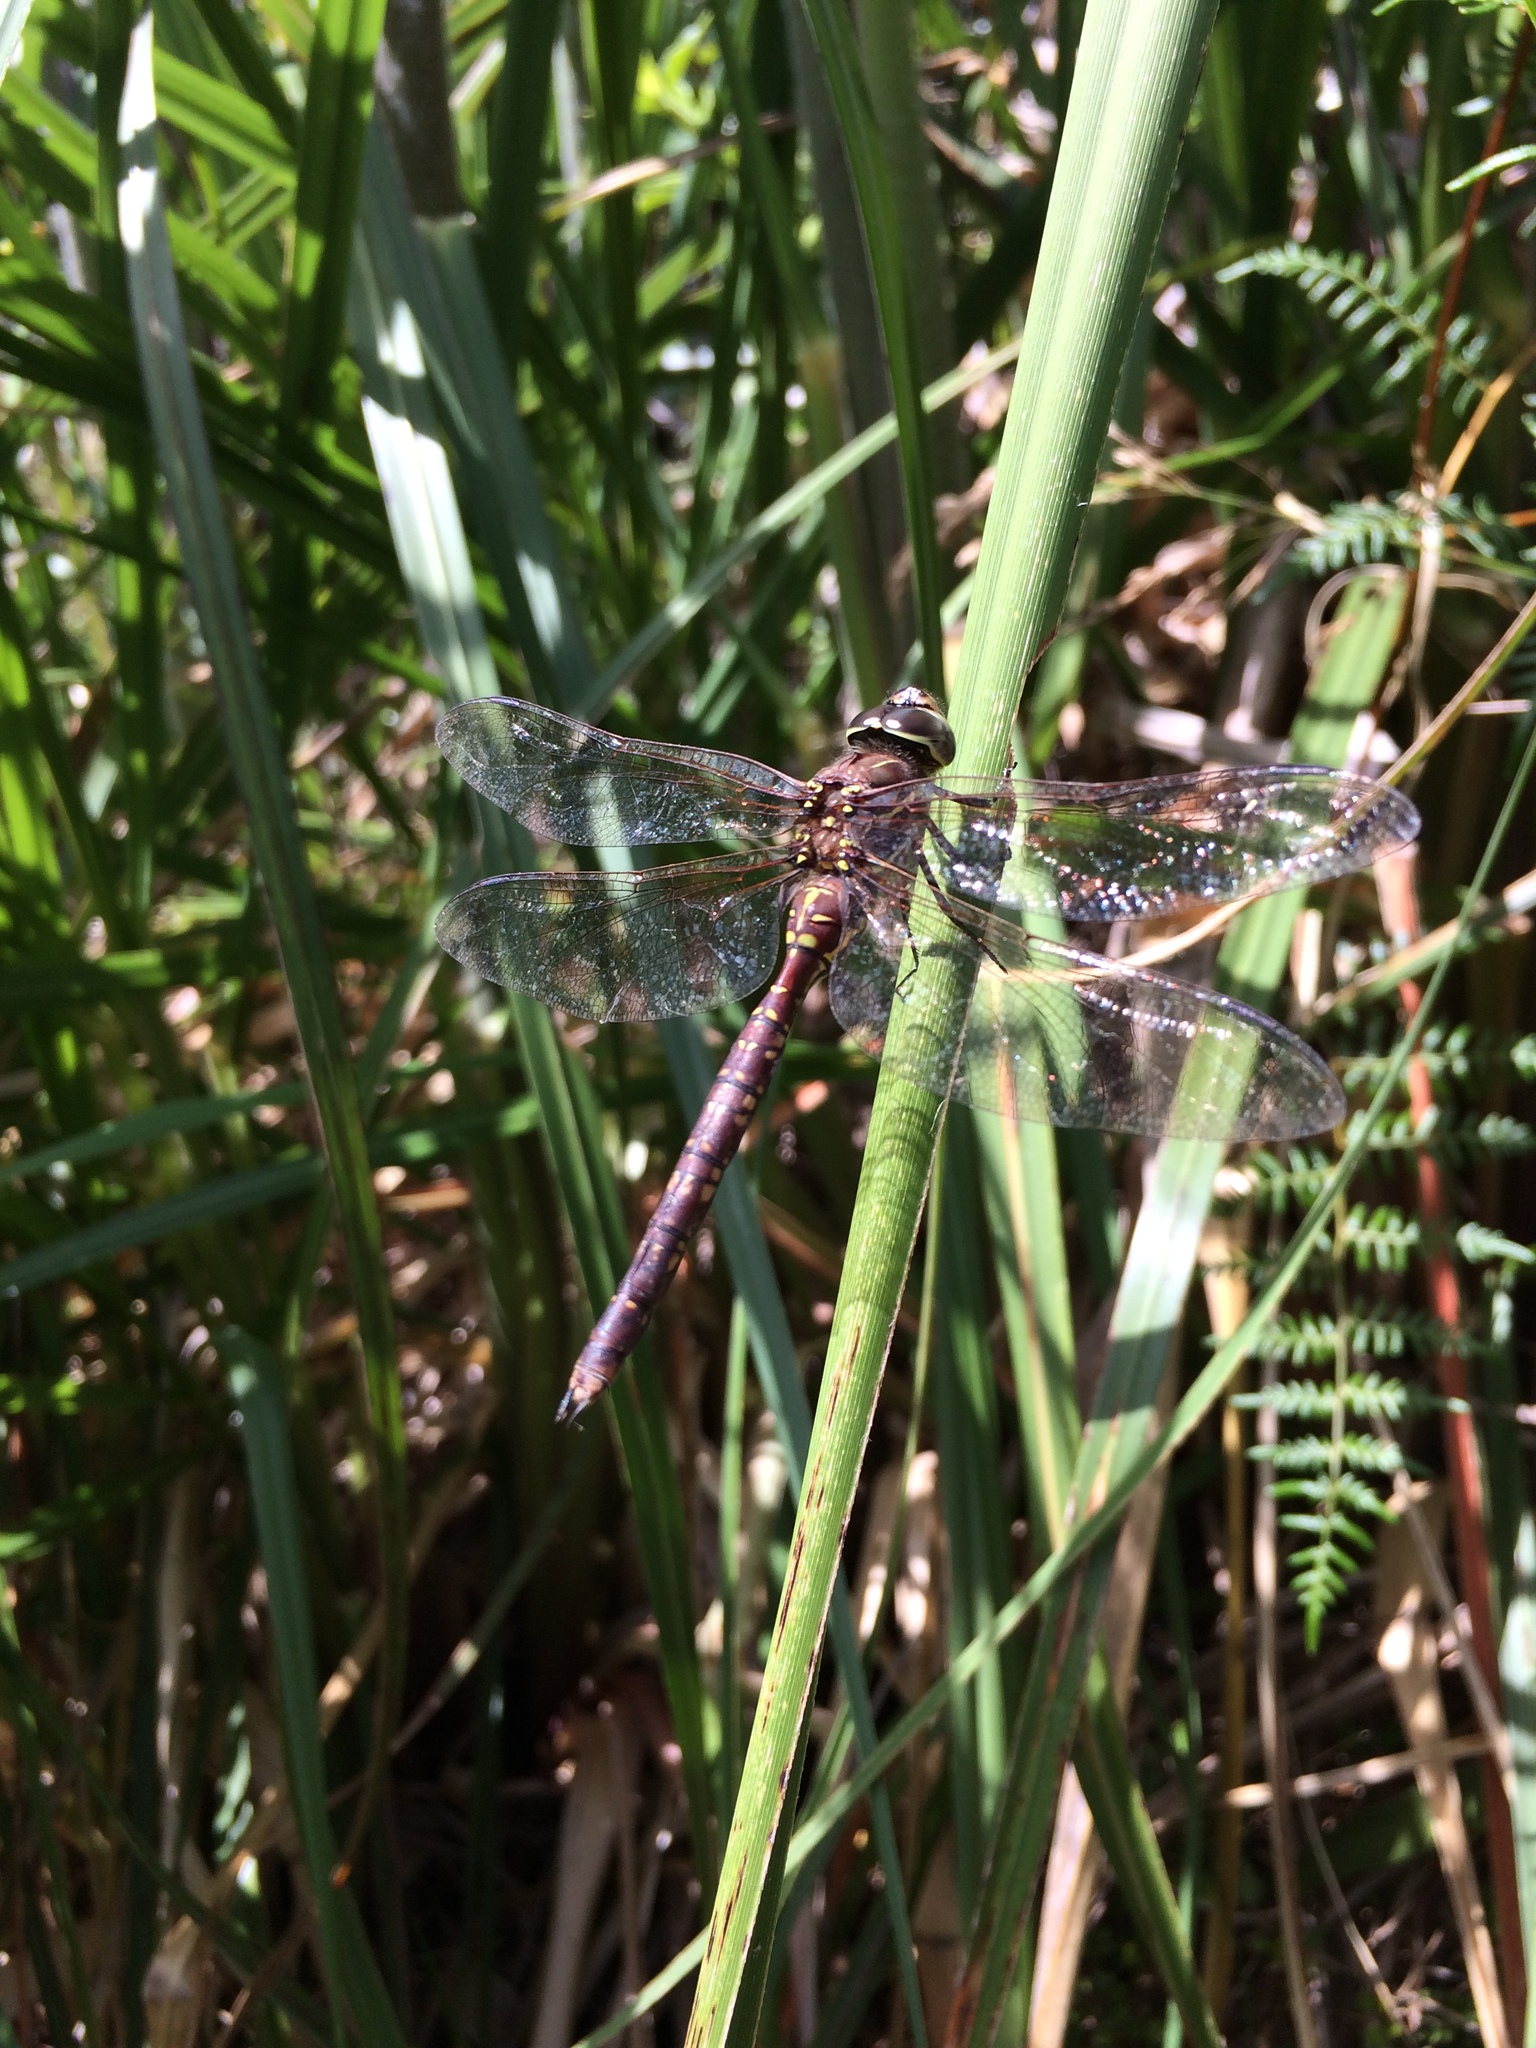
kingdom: Animalia
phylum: Arthropoda
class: Insecta
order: Odonata
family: Aeshnidae
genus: Aeshna
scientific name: Aeshna brevistyla
